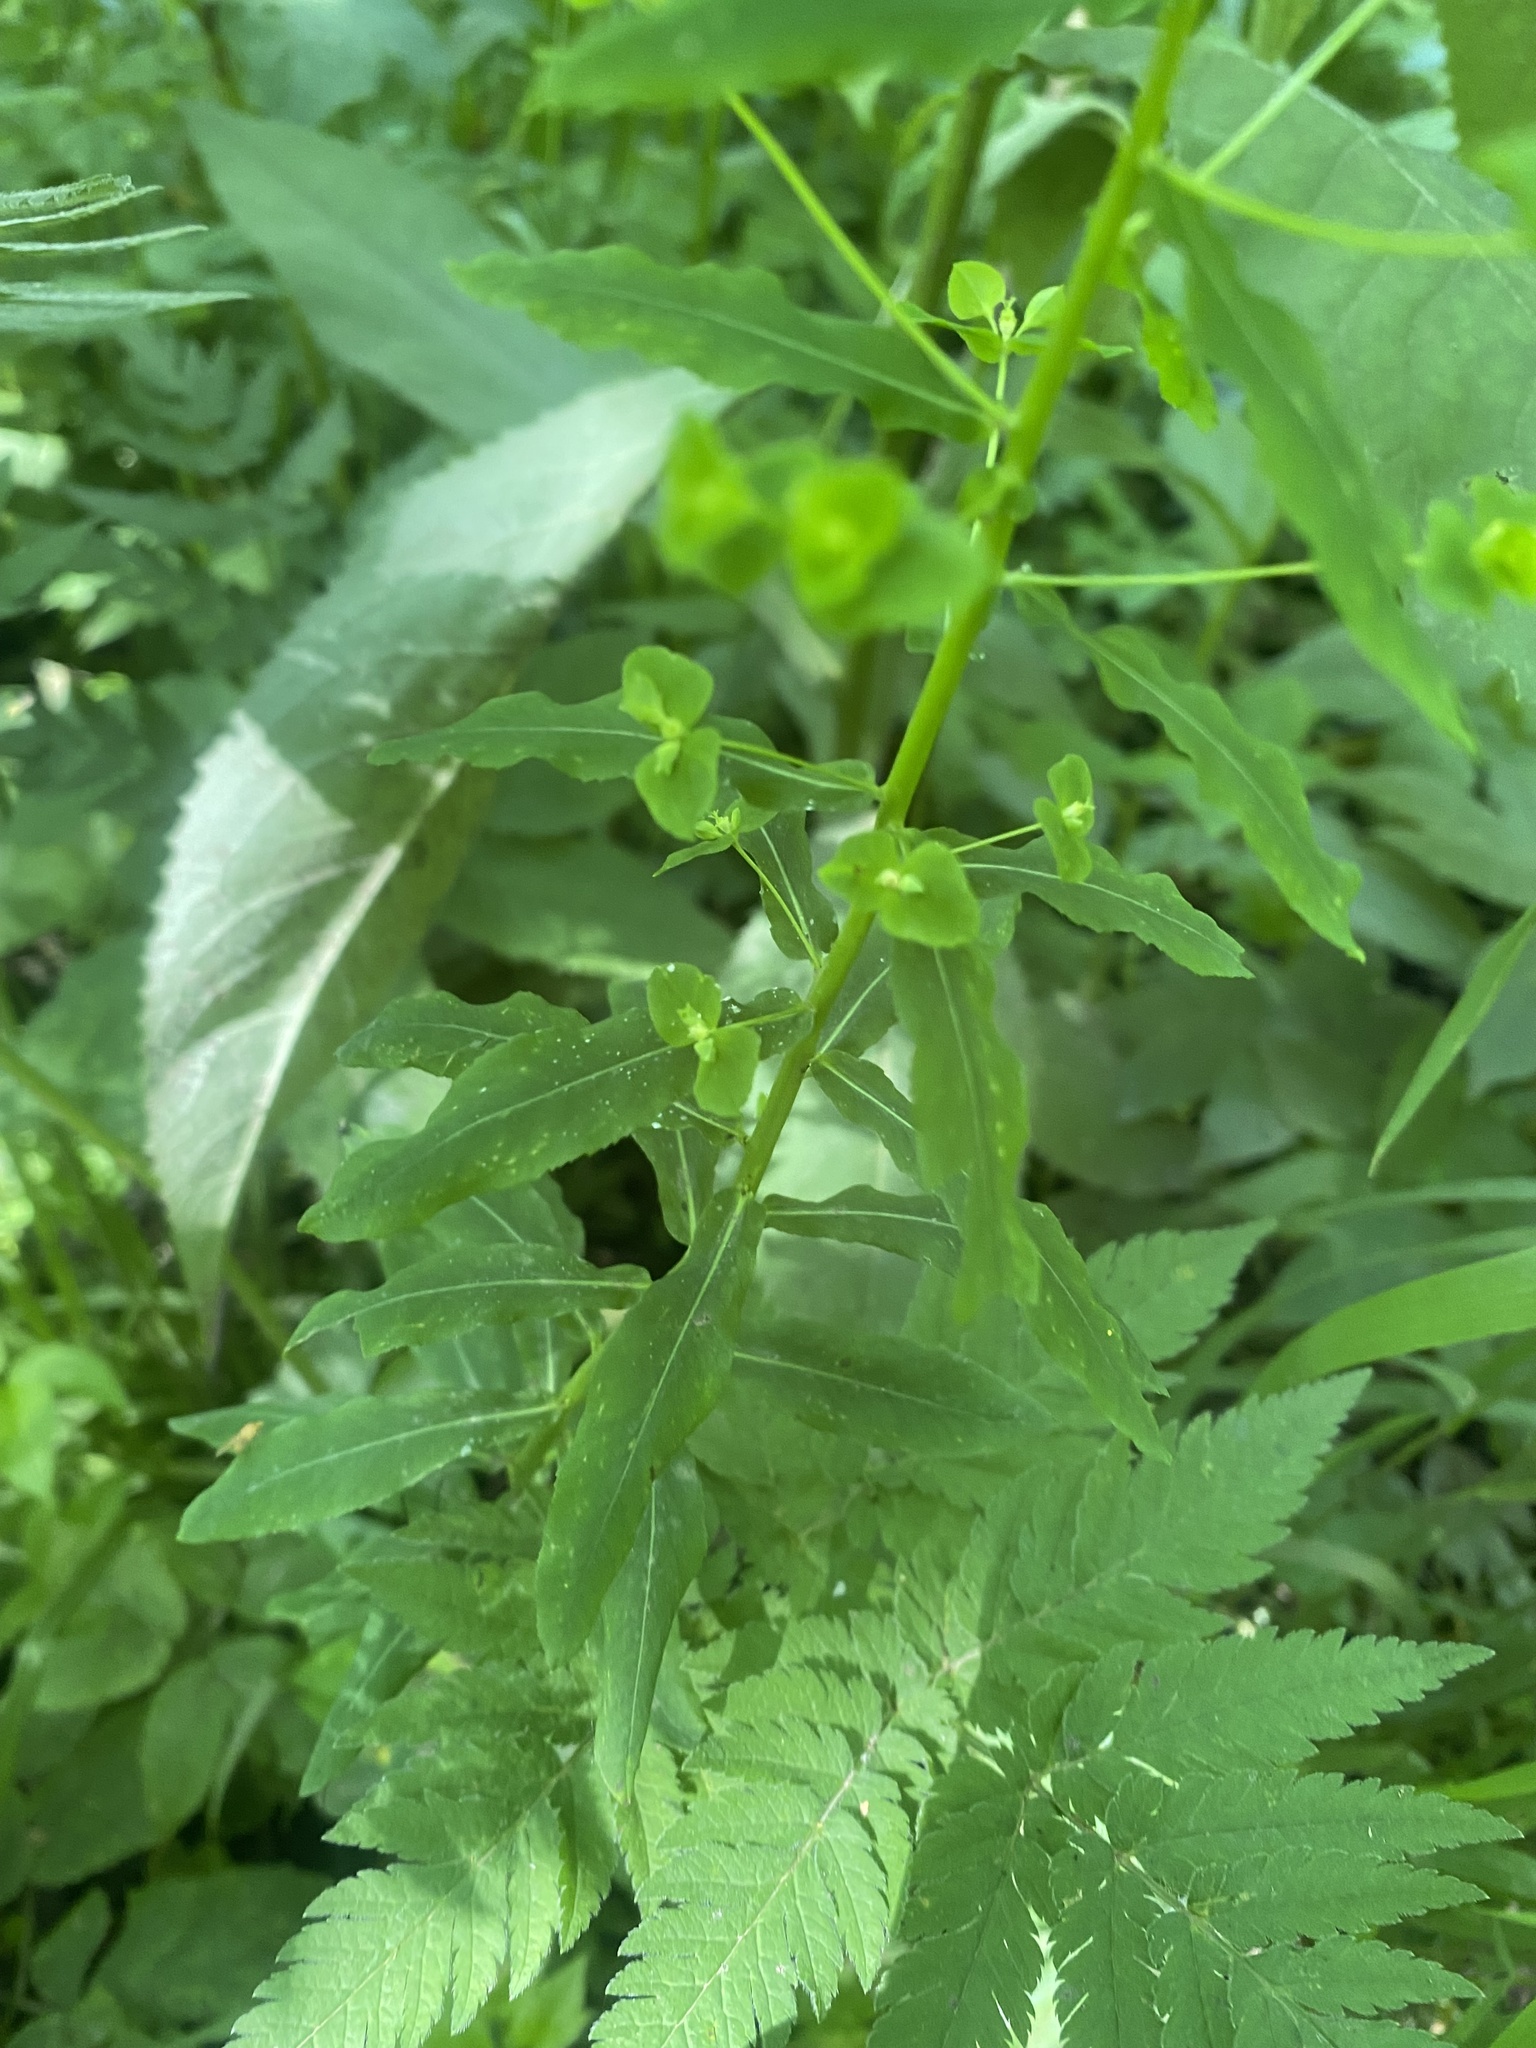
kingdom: Plantae
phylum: Tracheophyta
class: Magnoliopsida
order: Malpighiales
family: Euphorbiaceae
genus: Euphorbia
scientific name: Euphorbia stricta
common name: Upright spurge
